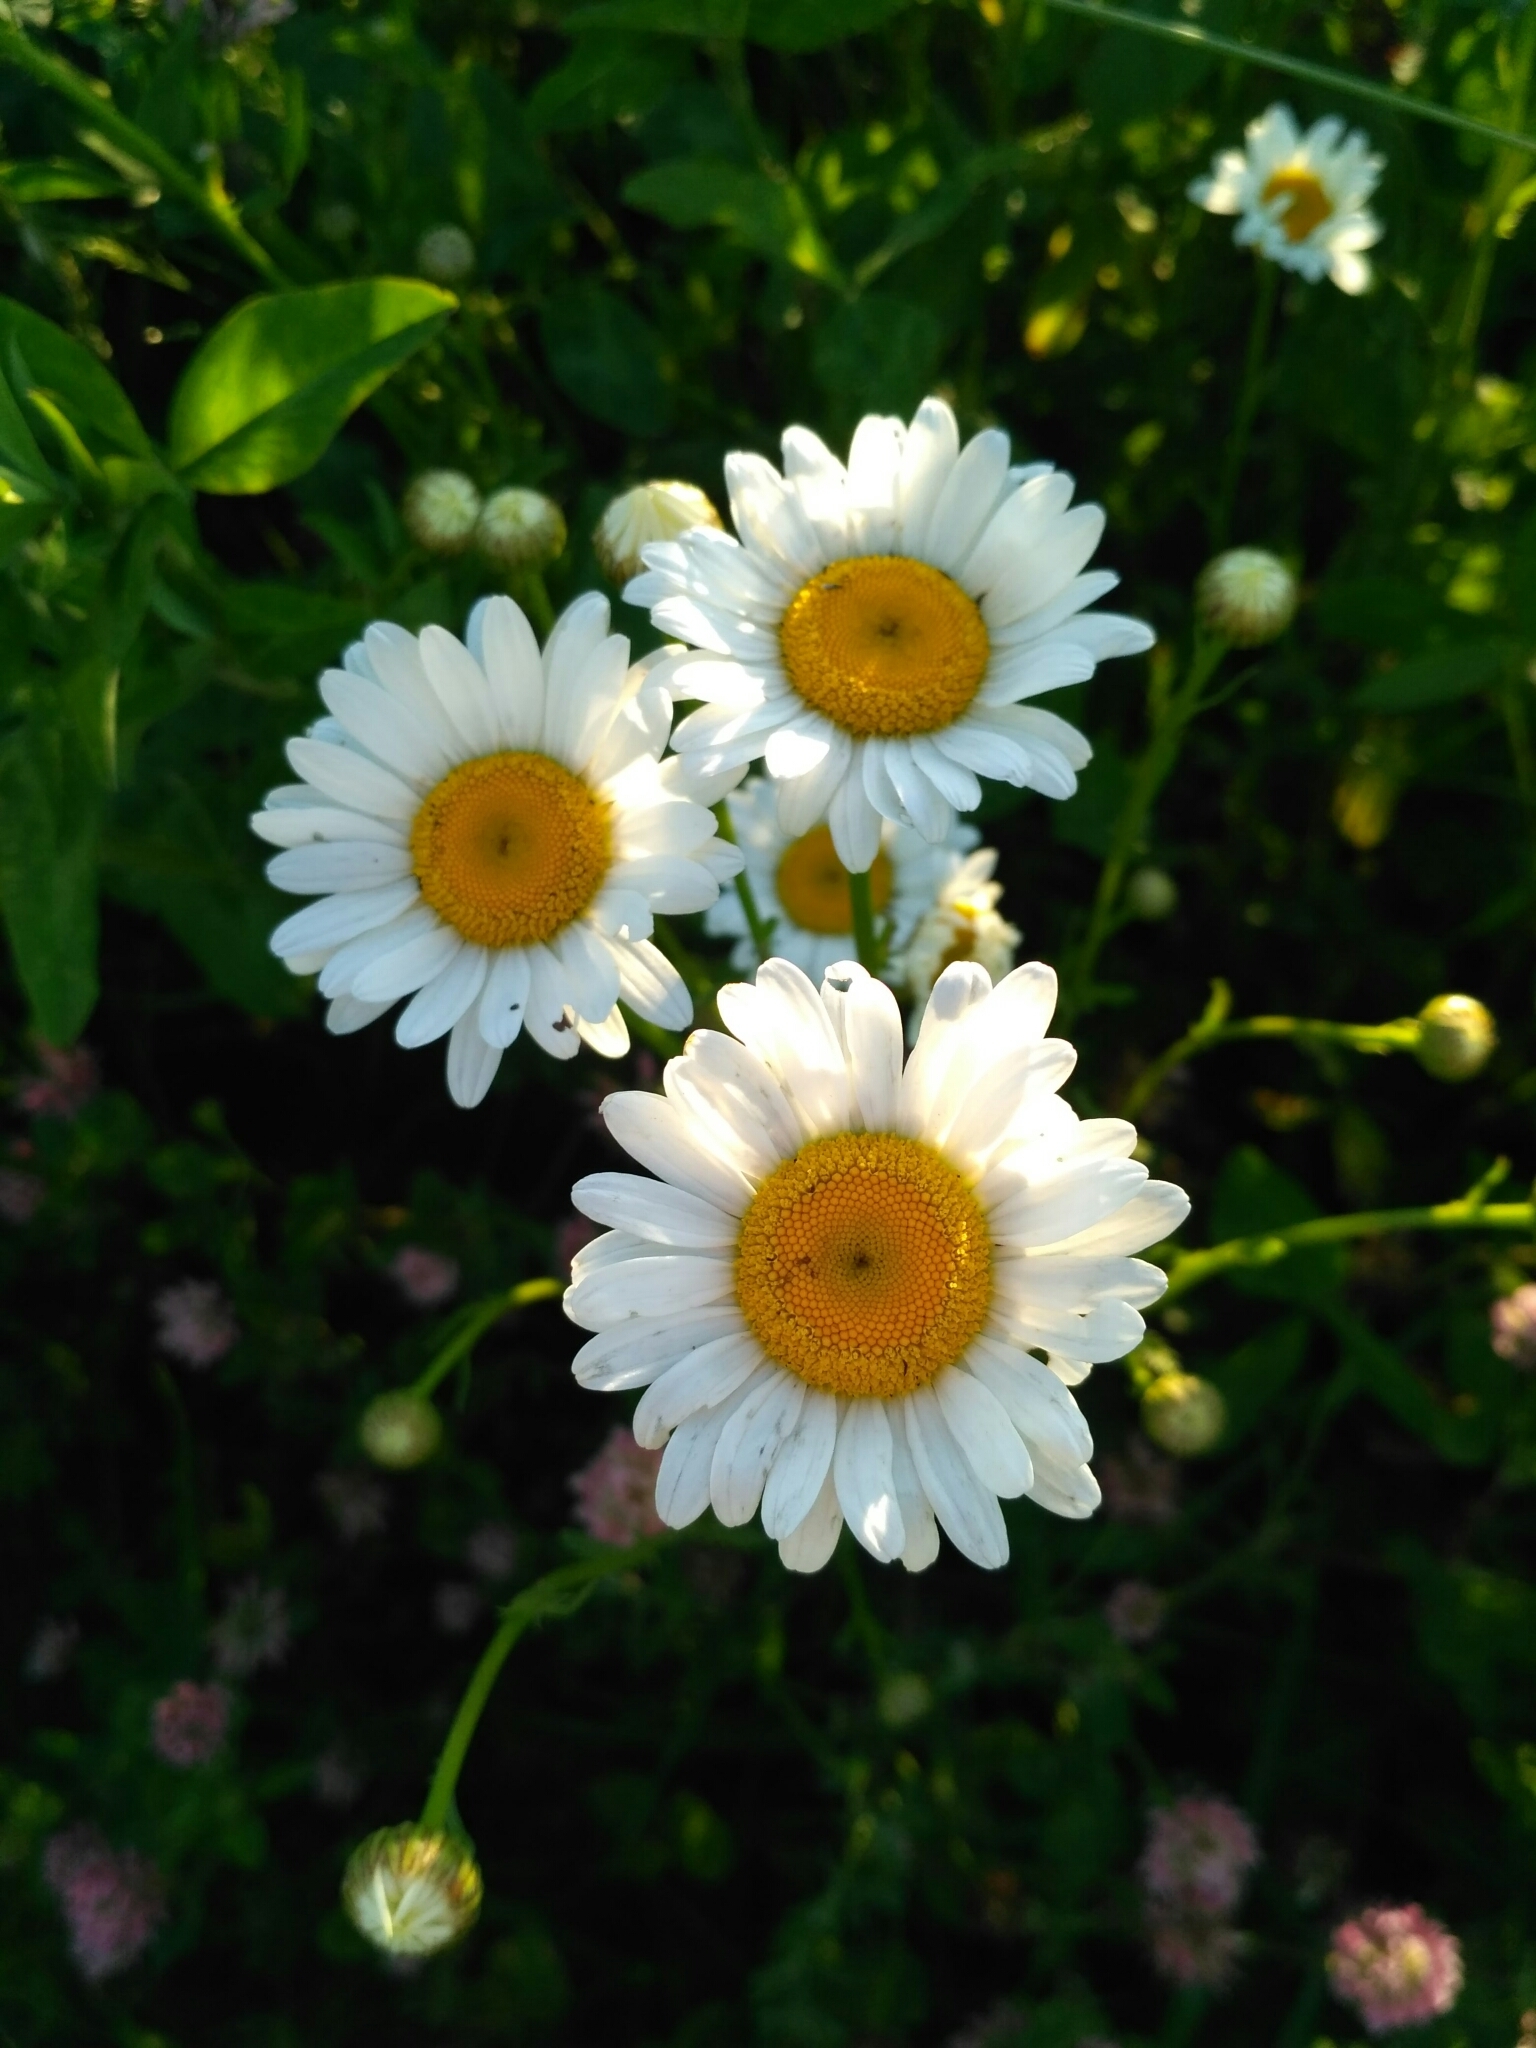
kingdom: Plantae
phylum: Tracheophyta
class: Magnoliopsida
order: Asterales
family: Asteraceae
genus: Leucanthemum
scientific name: Leucanthemum vulgare
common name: Oxeye daisy
